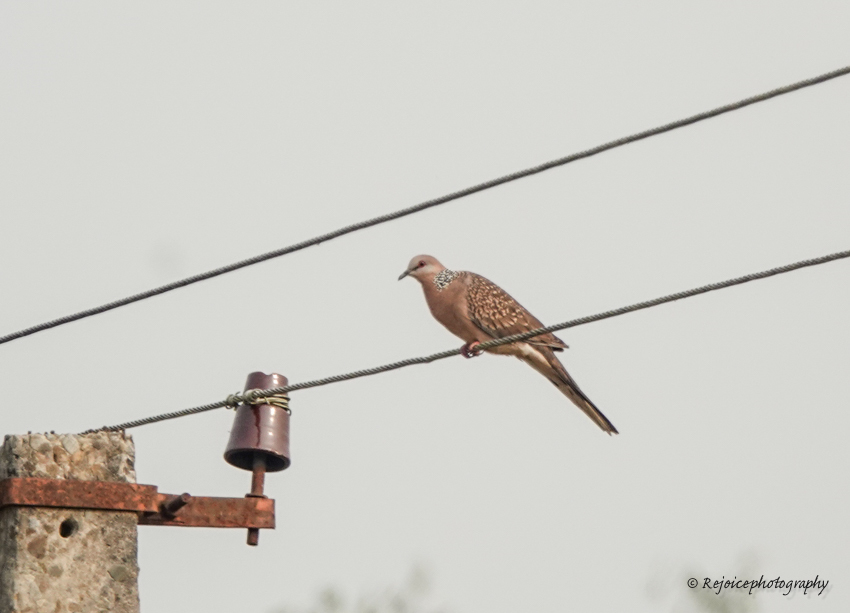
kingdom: Animalia
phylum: Chordata
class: Aves
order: Columbiformes
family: Columbidae
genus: Spilopelia
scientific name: Spilopelia chinensis
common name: Spotted dove
